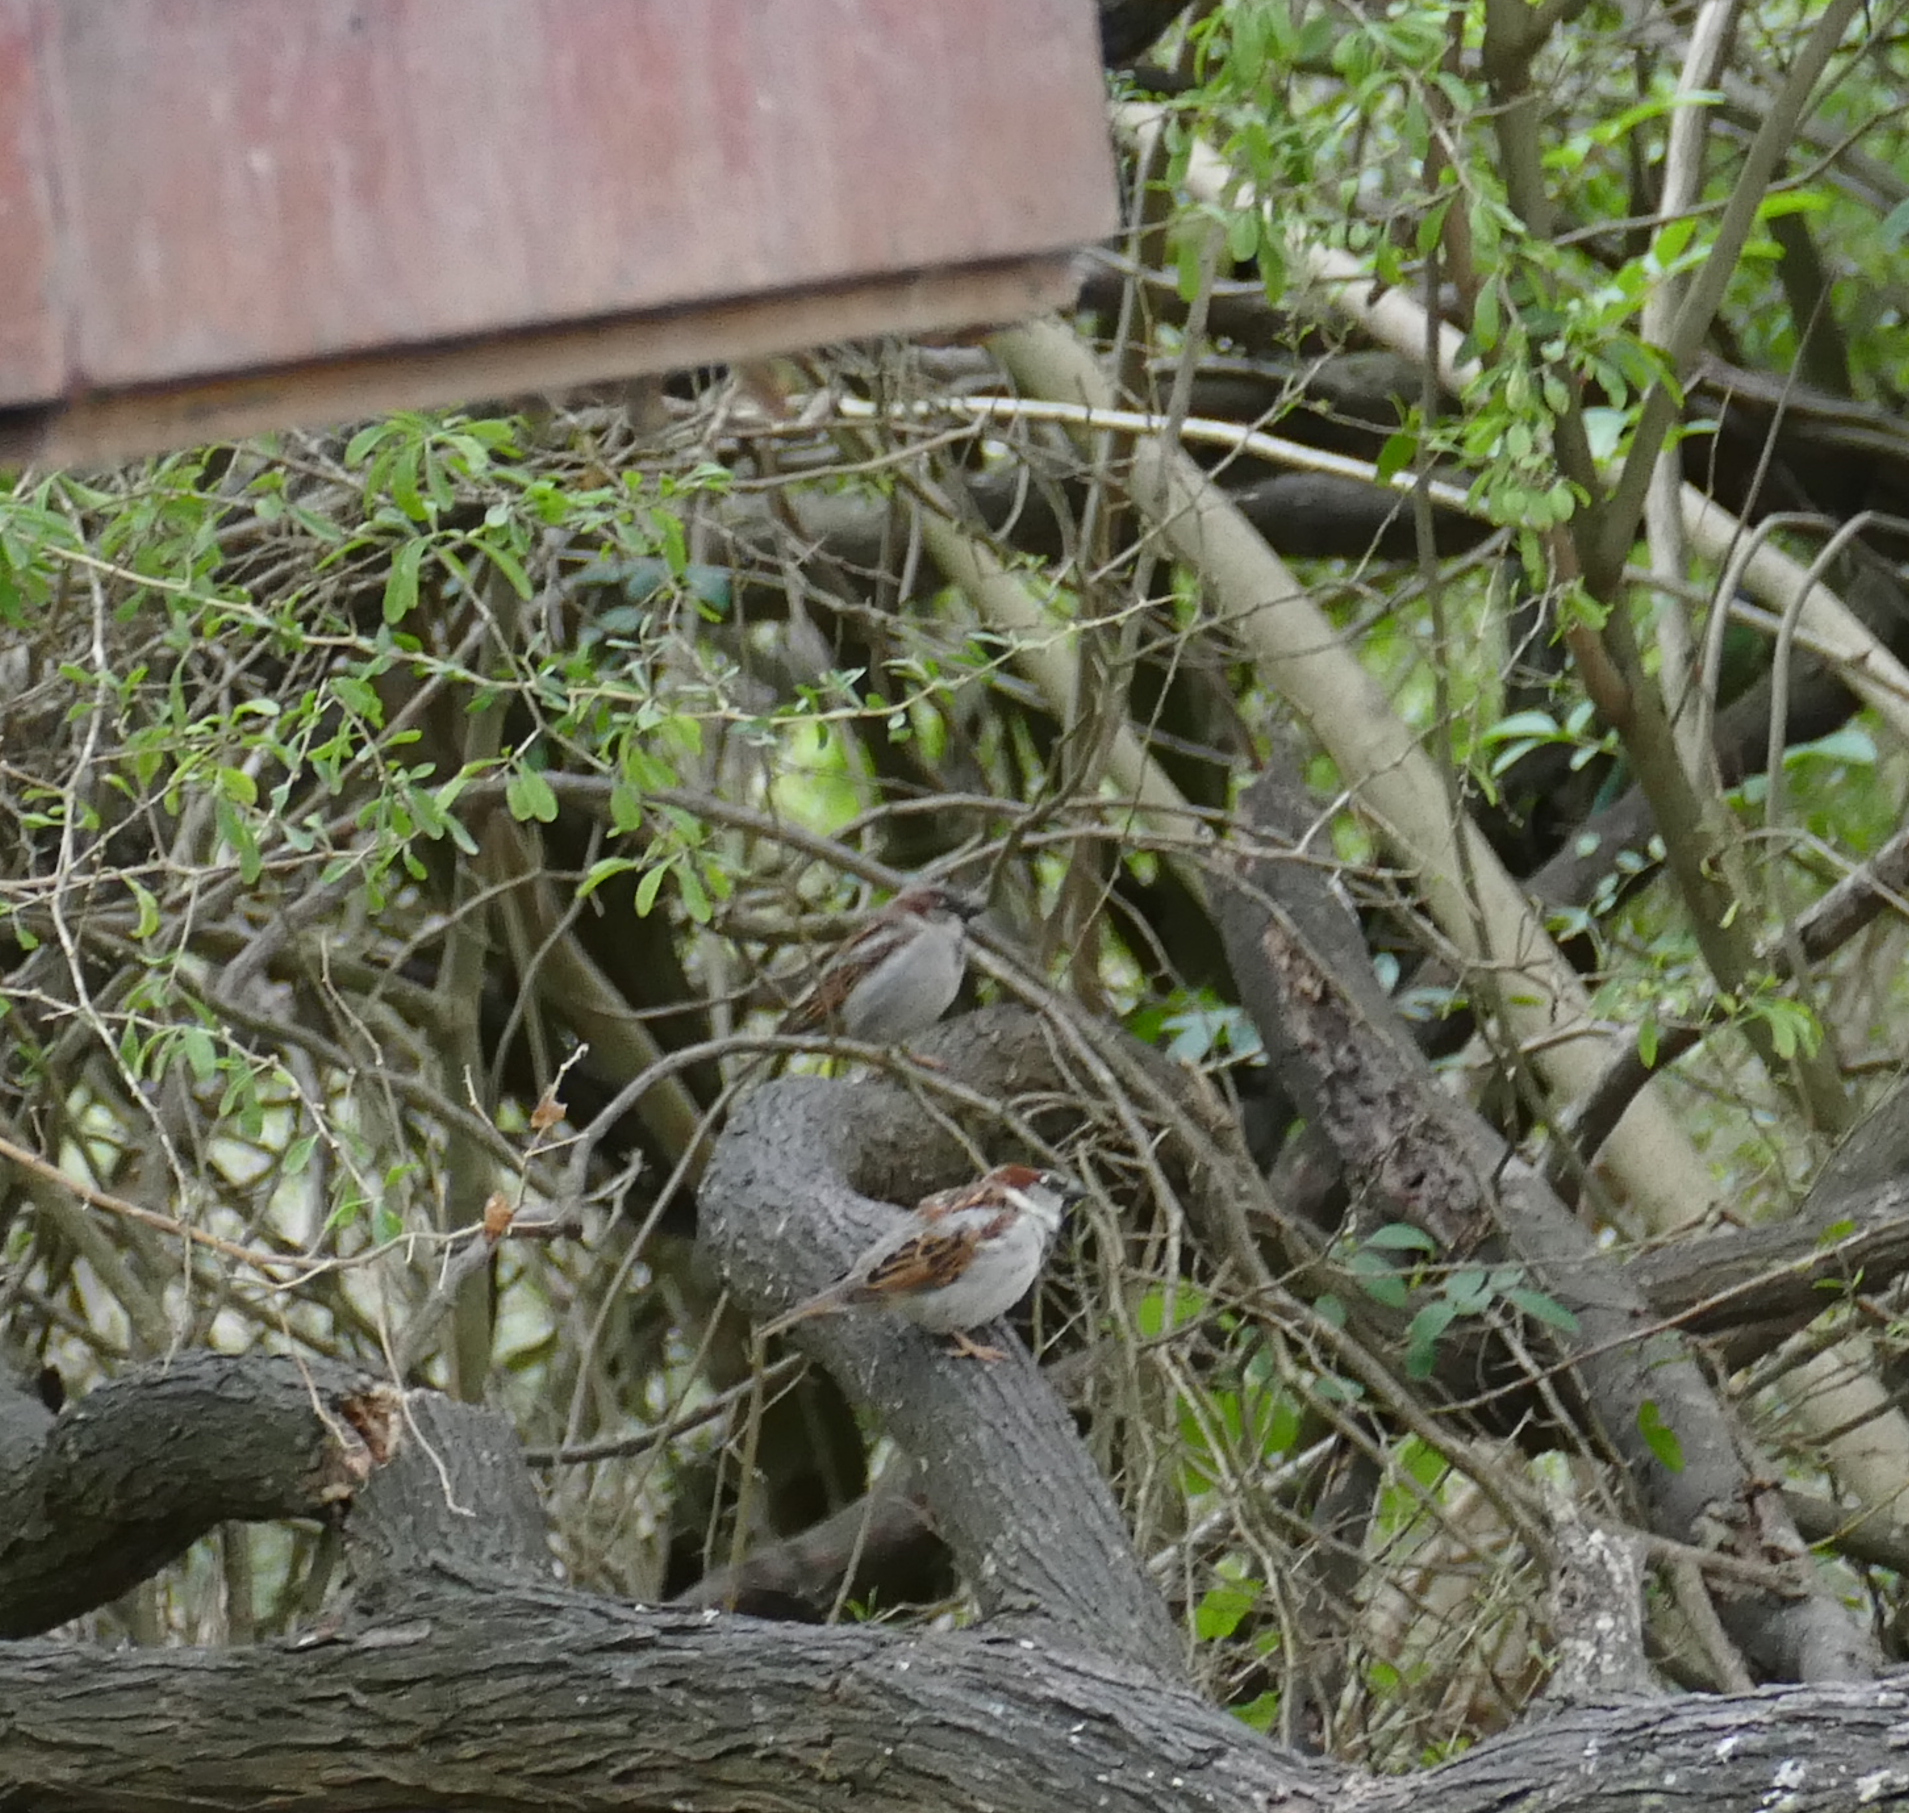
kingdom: Animalia
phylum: Chordata
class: Aves
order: Passeriformes
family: Passeridae
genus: Passer
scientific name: Passer domesticus
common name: House sparrow
